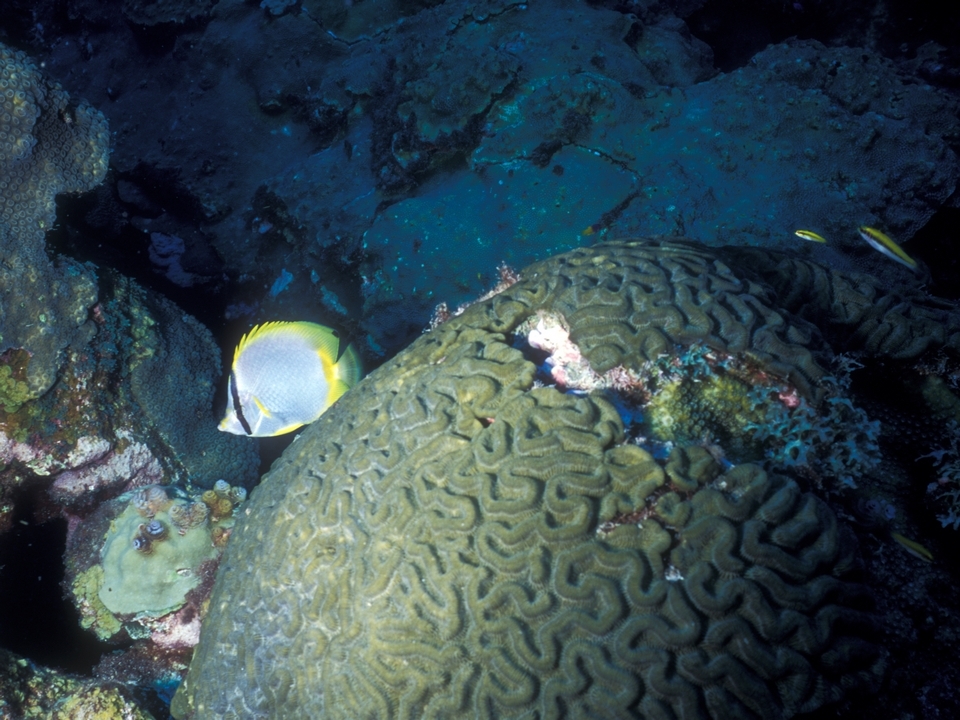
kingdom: Animalia
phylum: Chordata
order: Perciformes
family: Chaetodontidae
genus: Chaetodon
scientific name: Chaetodon ocellatus
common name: Spotfin butterflyfish
